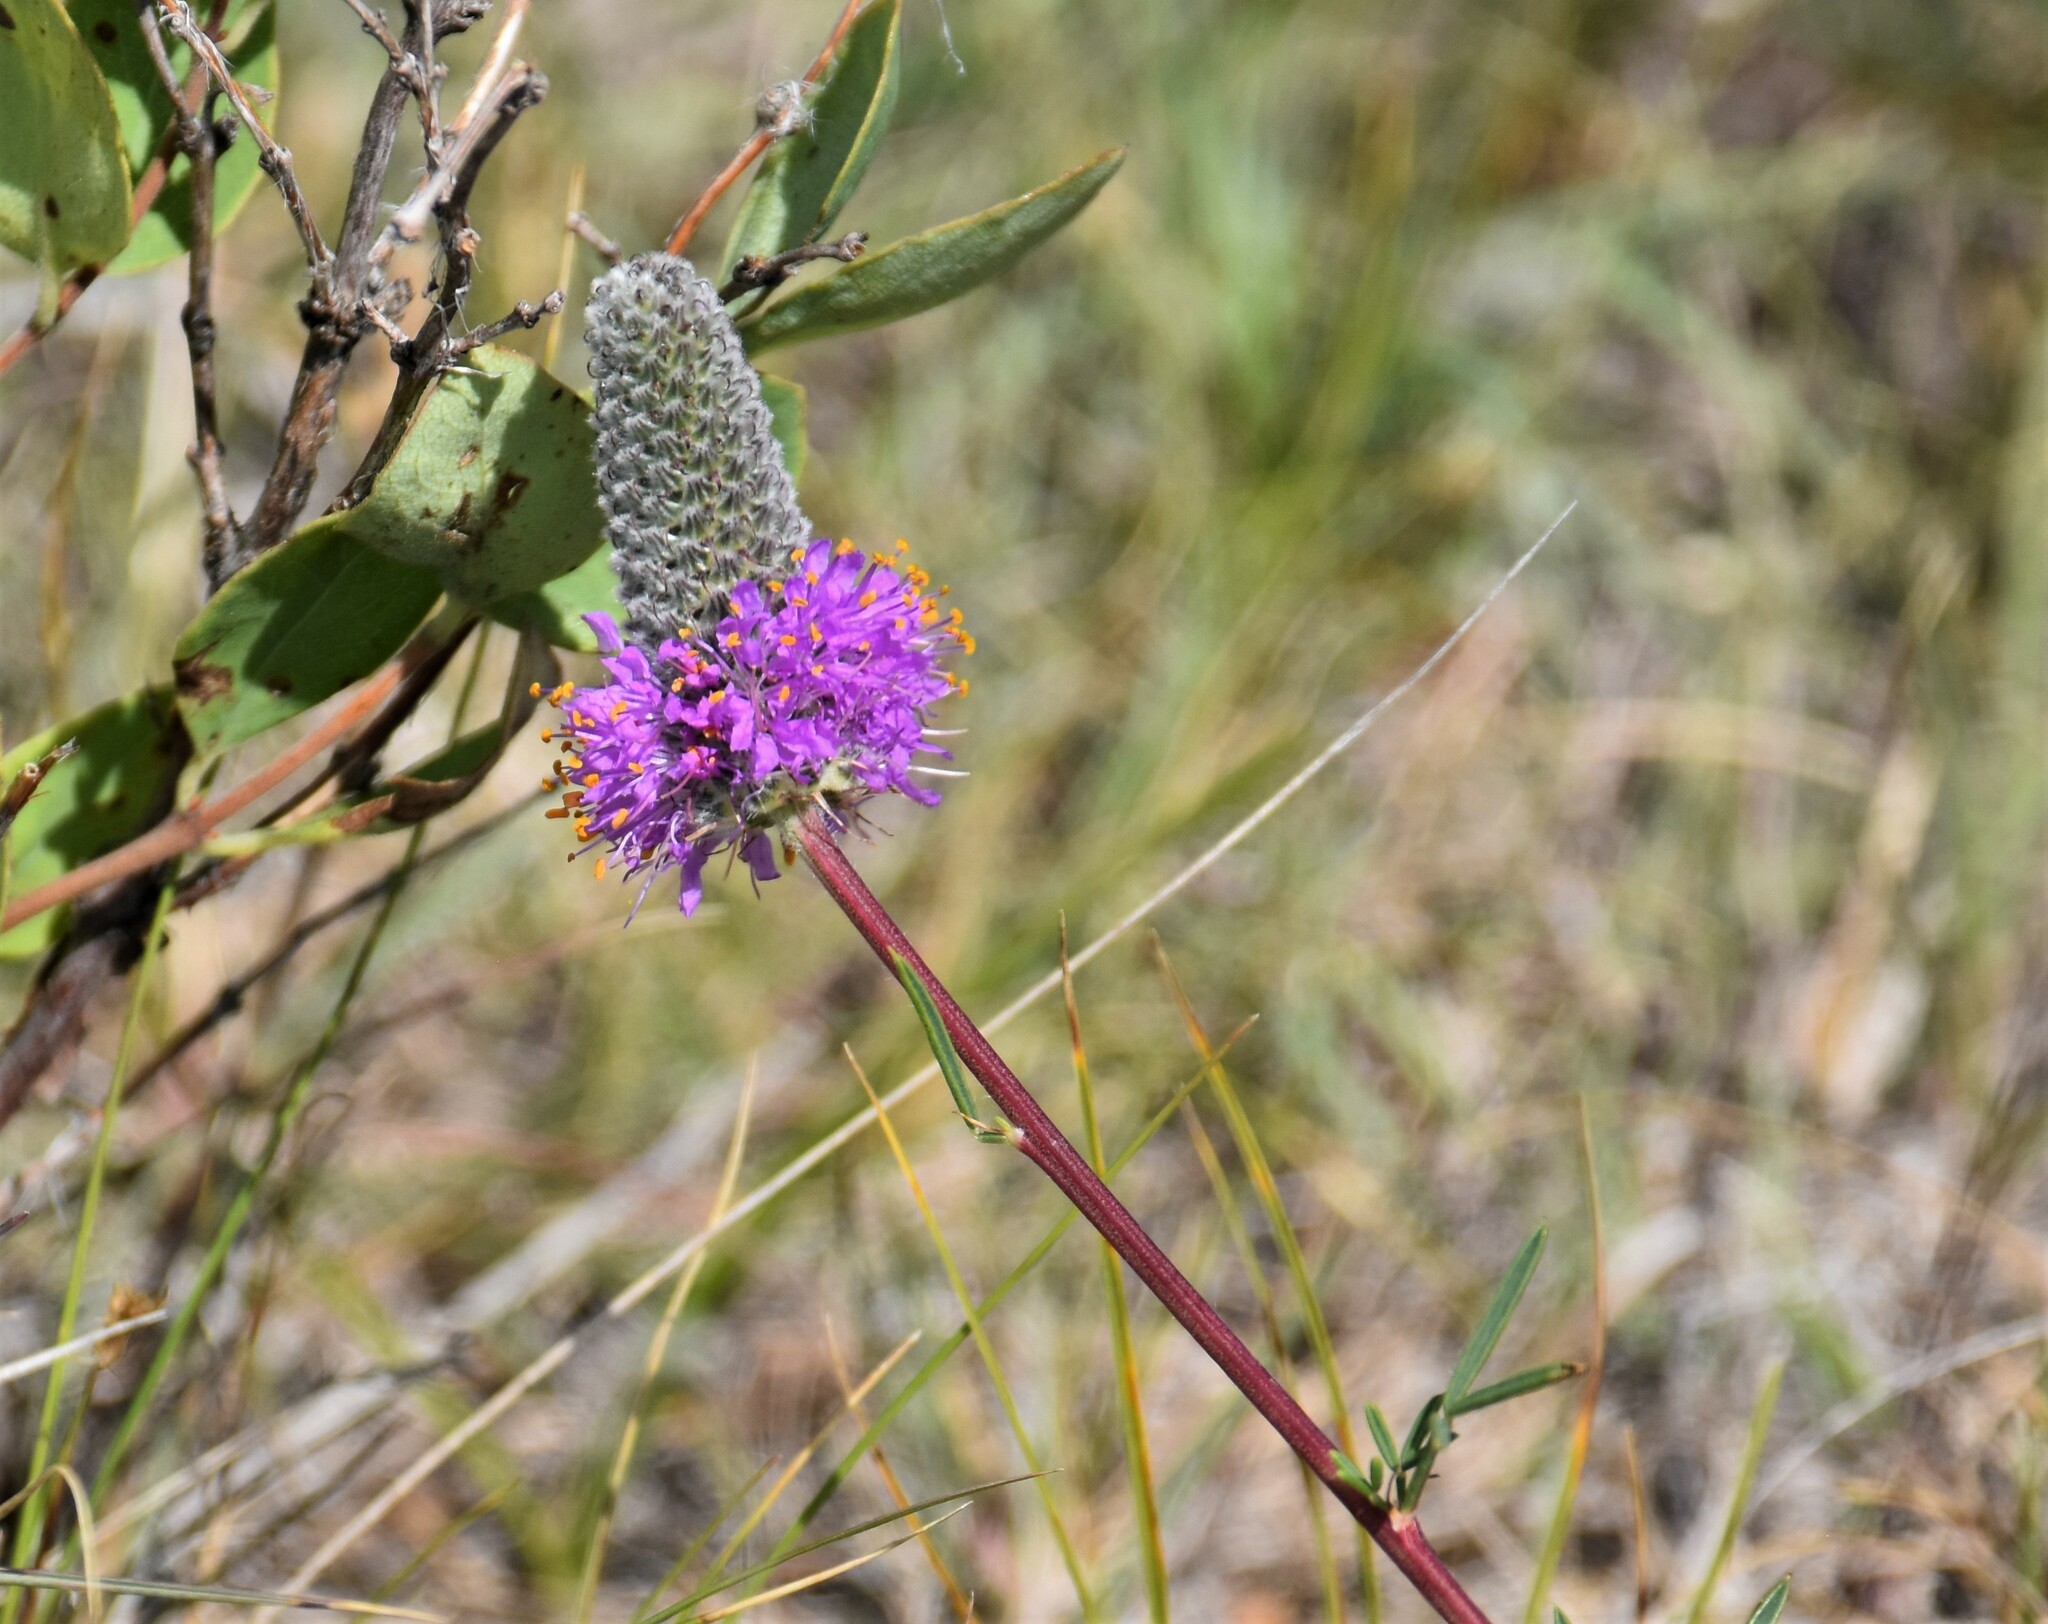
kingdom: Plantae
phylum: Tracheophyta
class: Magnoliopsida
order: Fabales
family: Fabaceae
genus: Dalea
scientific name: Dalea purpurea
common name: Purple prairie-clover
